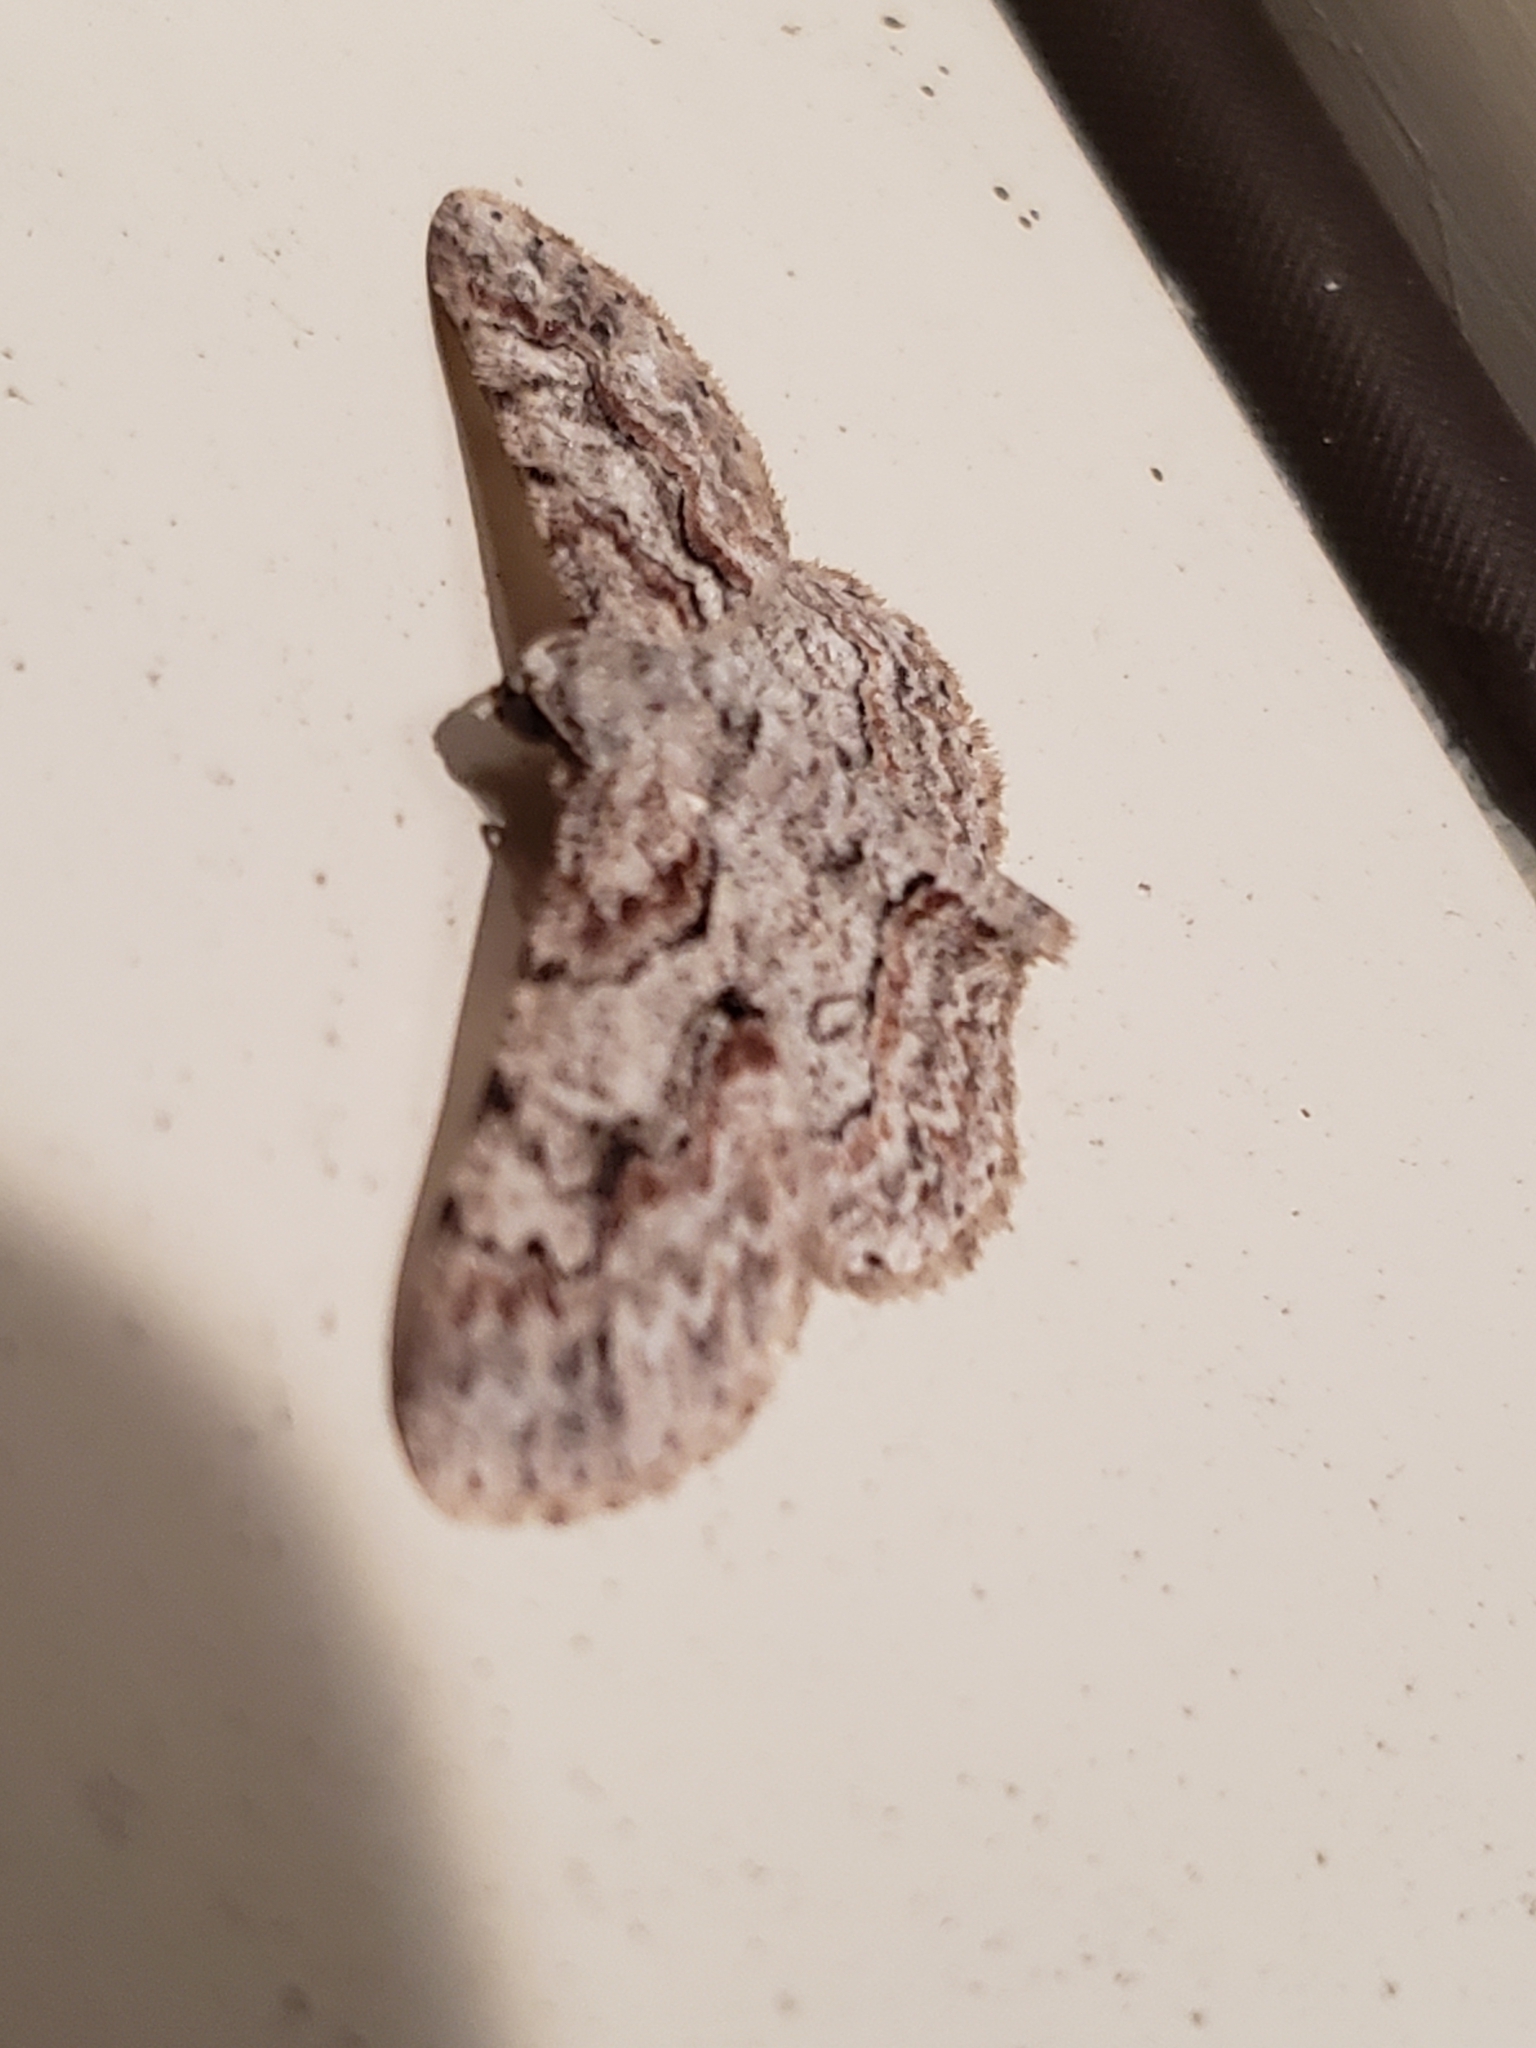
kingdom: Animalia
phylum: Arthropoda
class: Insecta
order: Lepidoptera
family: Geometridae
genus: Iridopsis
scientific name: Iridopsis defectaria
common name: Brown-shaded gray
